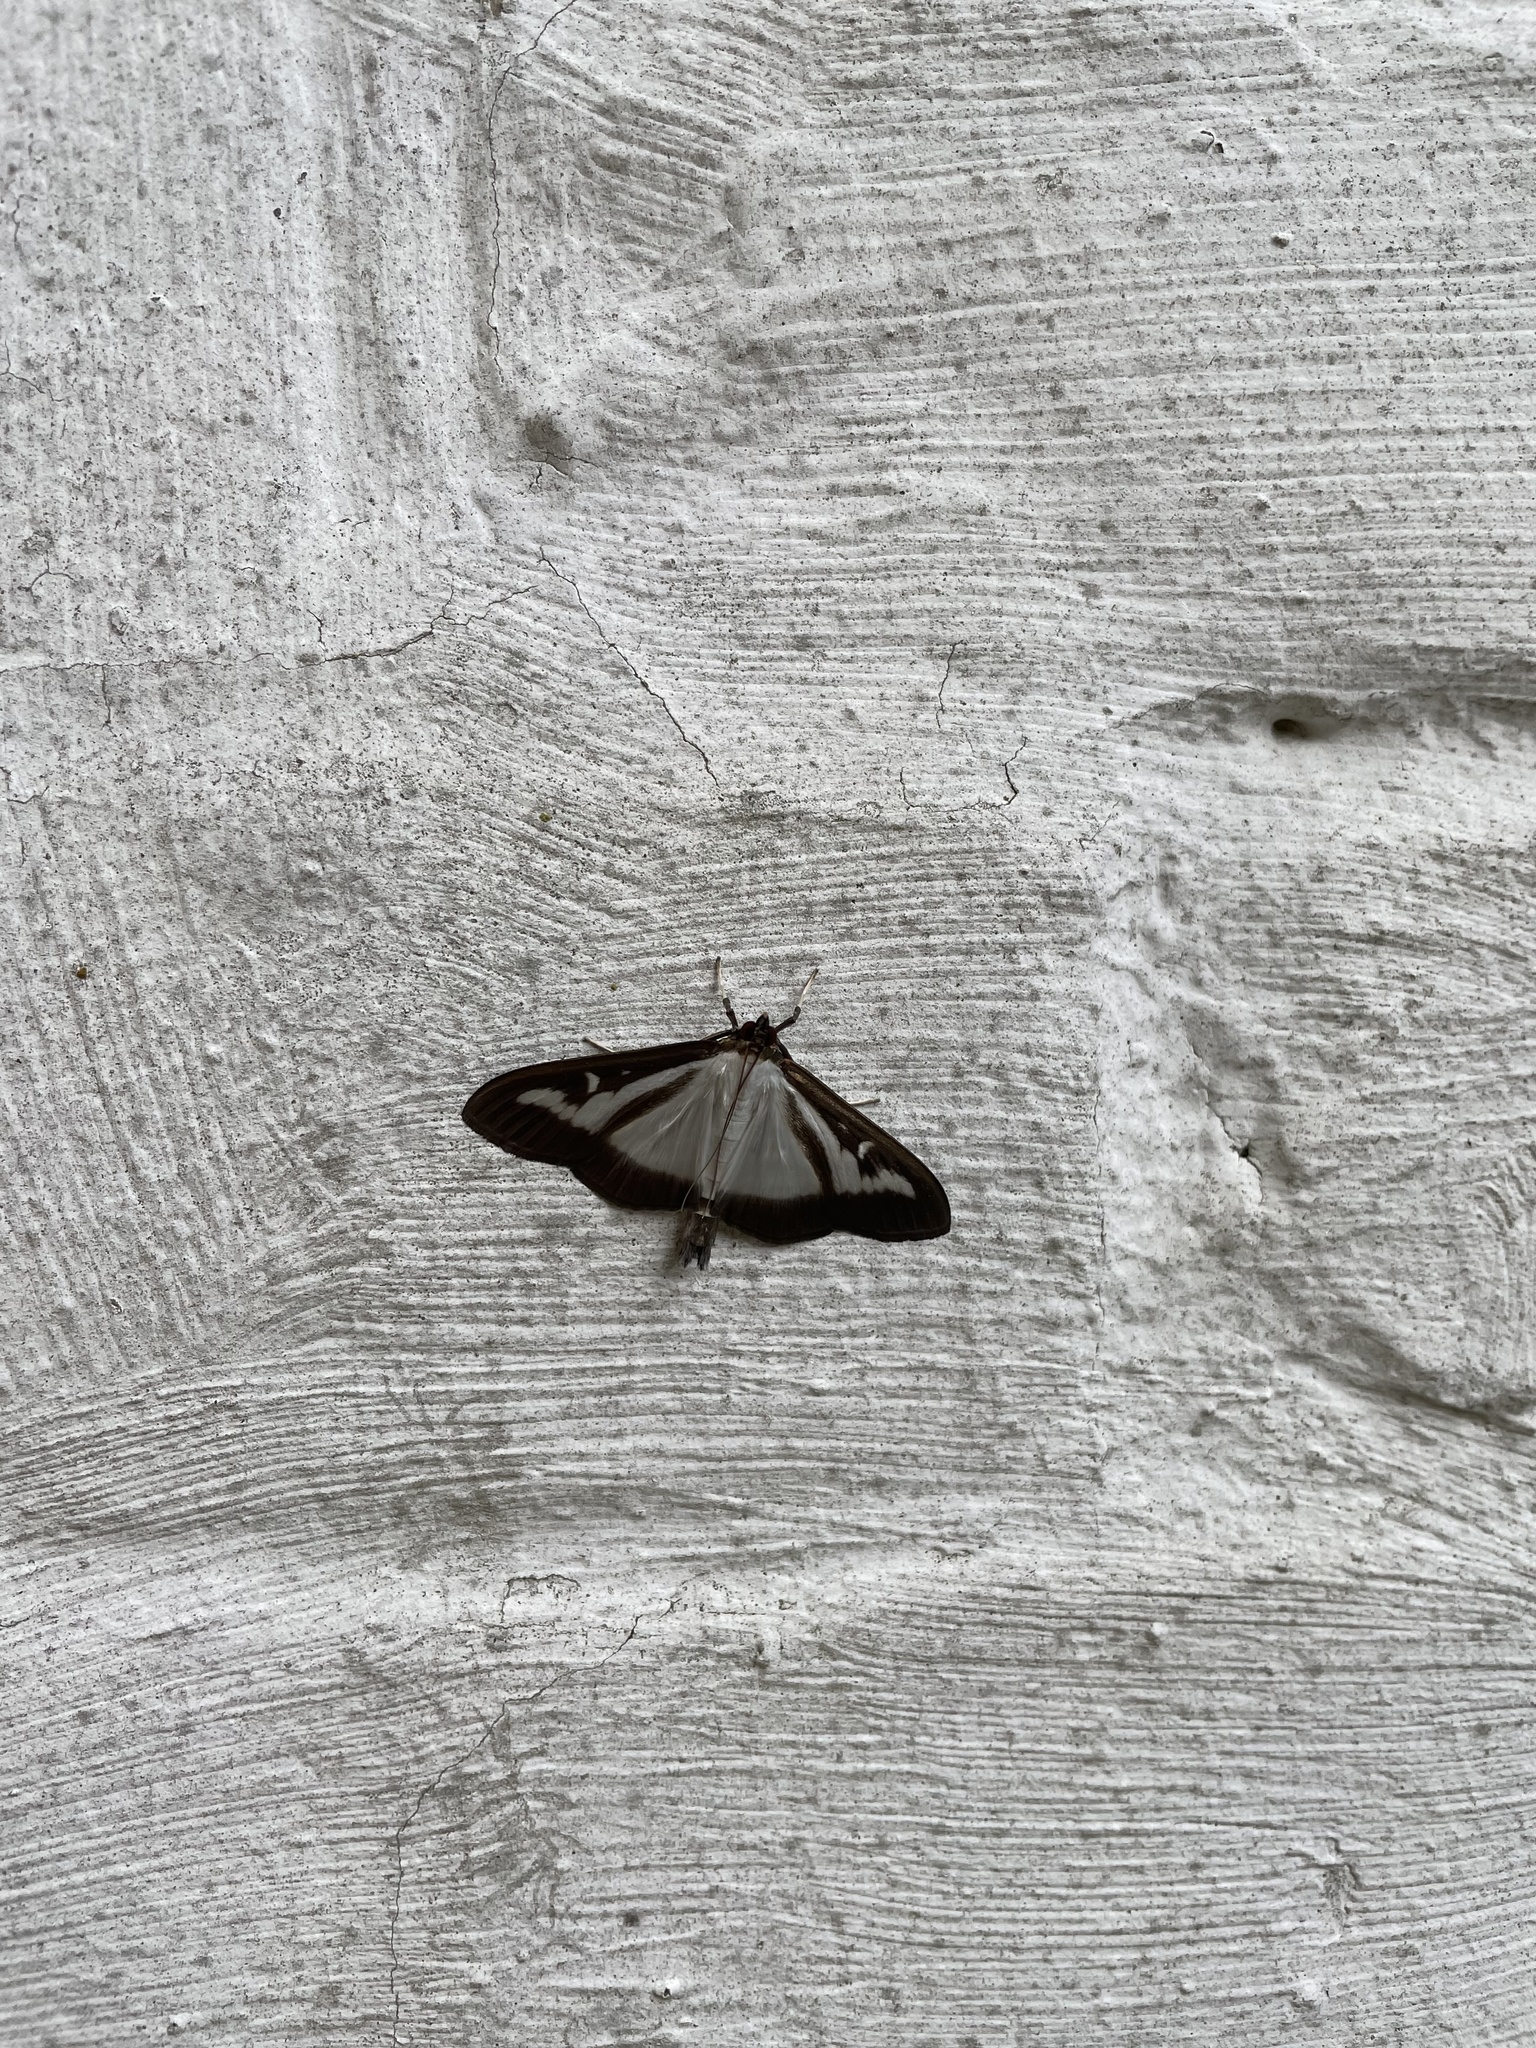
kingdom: Animalia
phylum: Arthropoda
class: Insecta
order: Lepidoptera
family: Crambidae
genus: Cydalima
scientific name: Cydalima perspectalis
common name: Box tree moth
